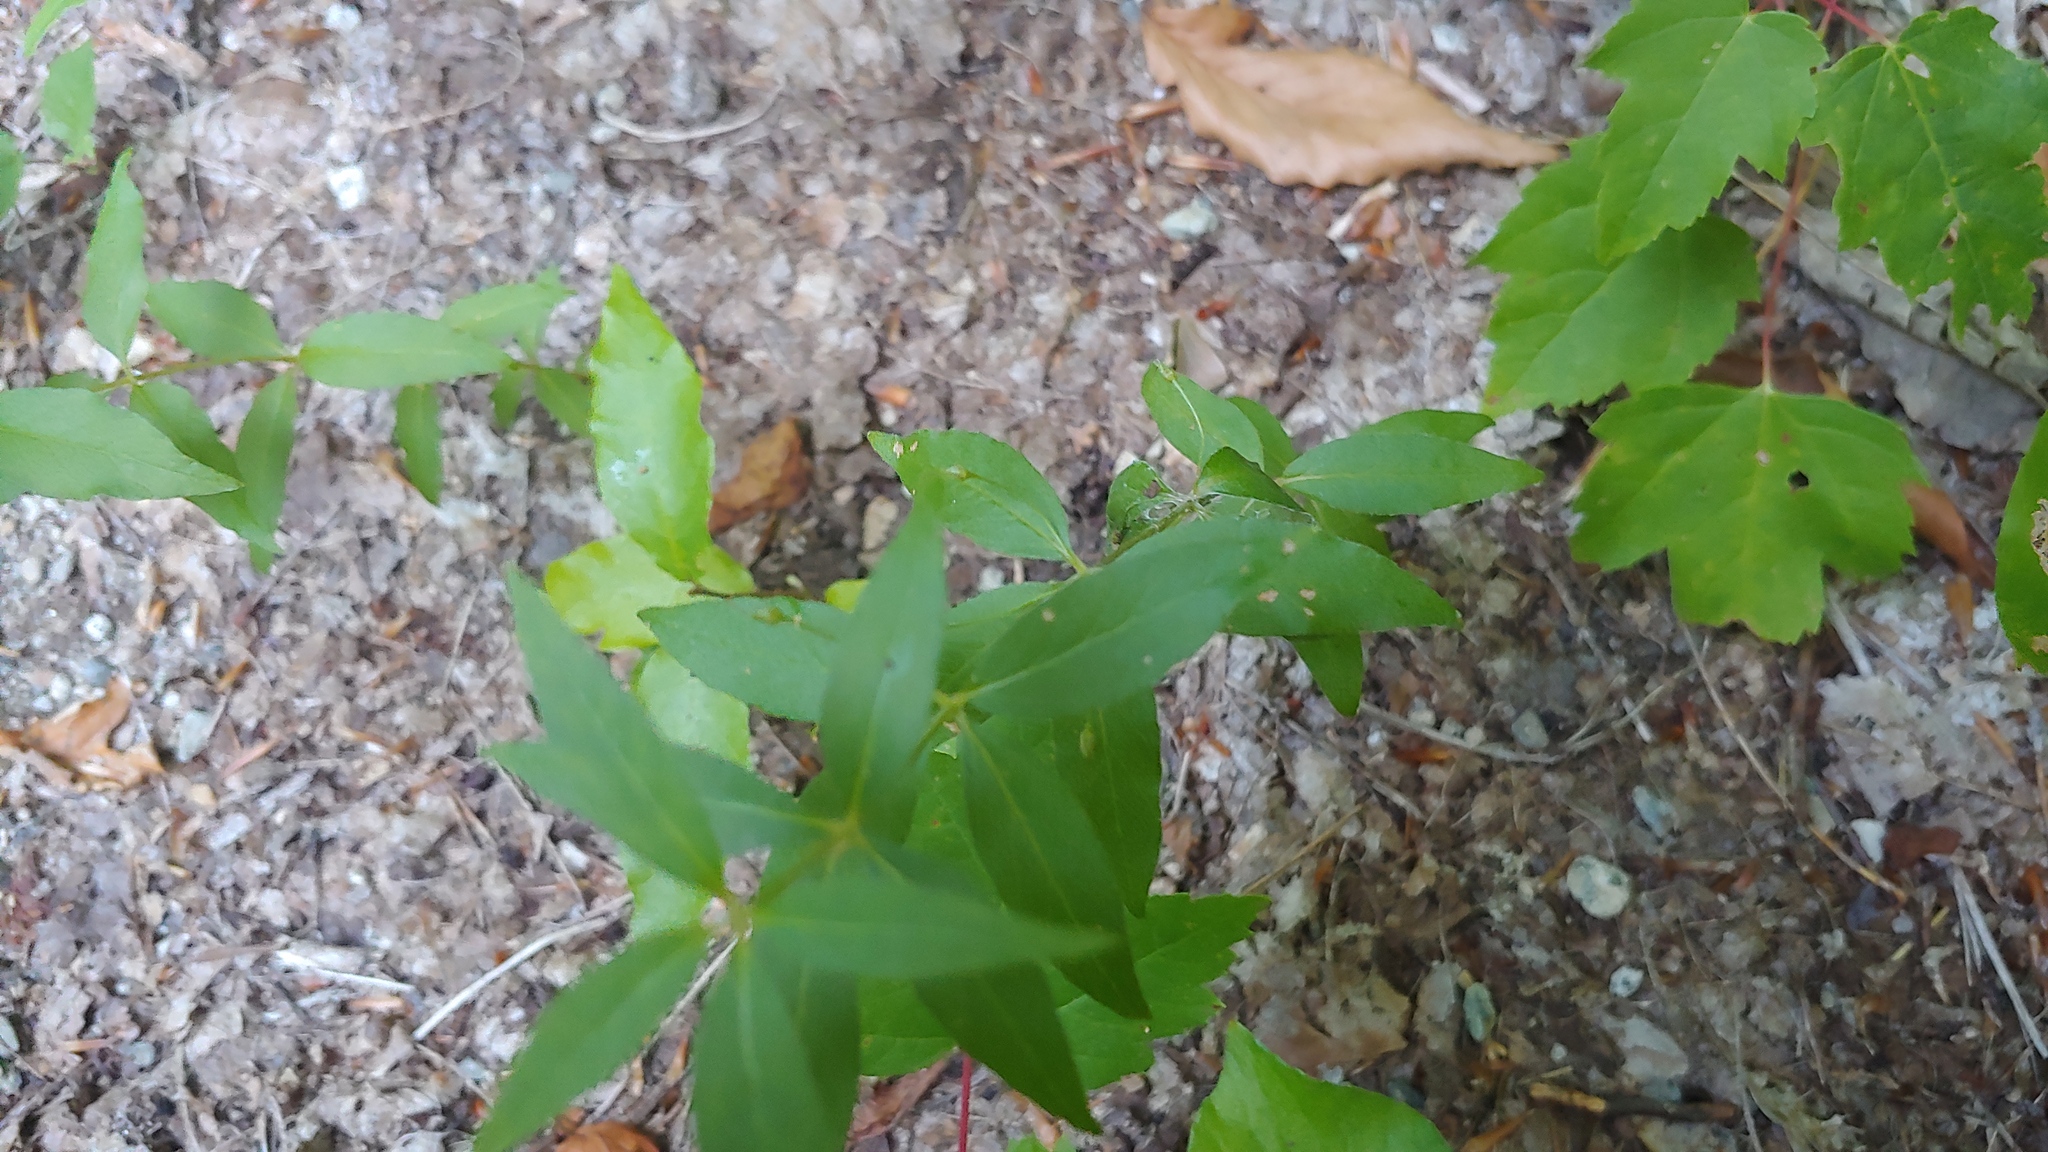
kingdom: Plantae
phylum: Tracheophyta
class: Magnoliopsida
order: Ericales
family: Primulaceae
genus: Lysimachia
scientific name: Lysimachia quadrifolia
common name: Whorled loosestrife
